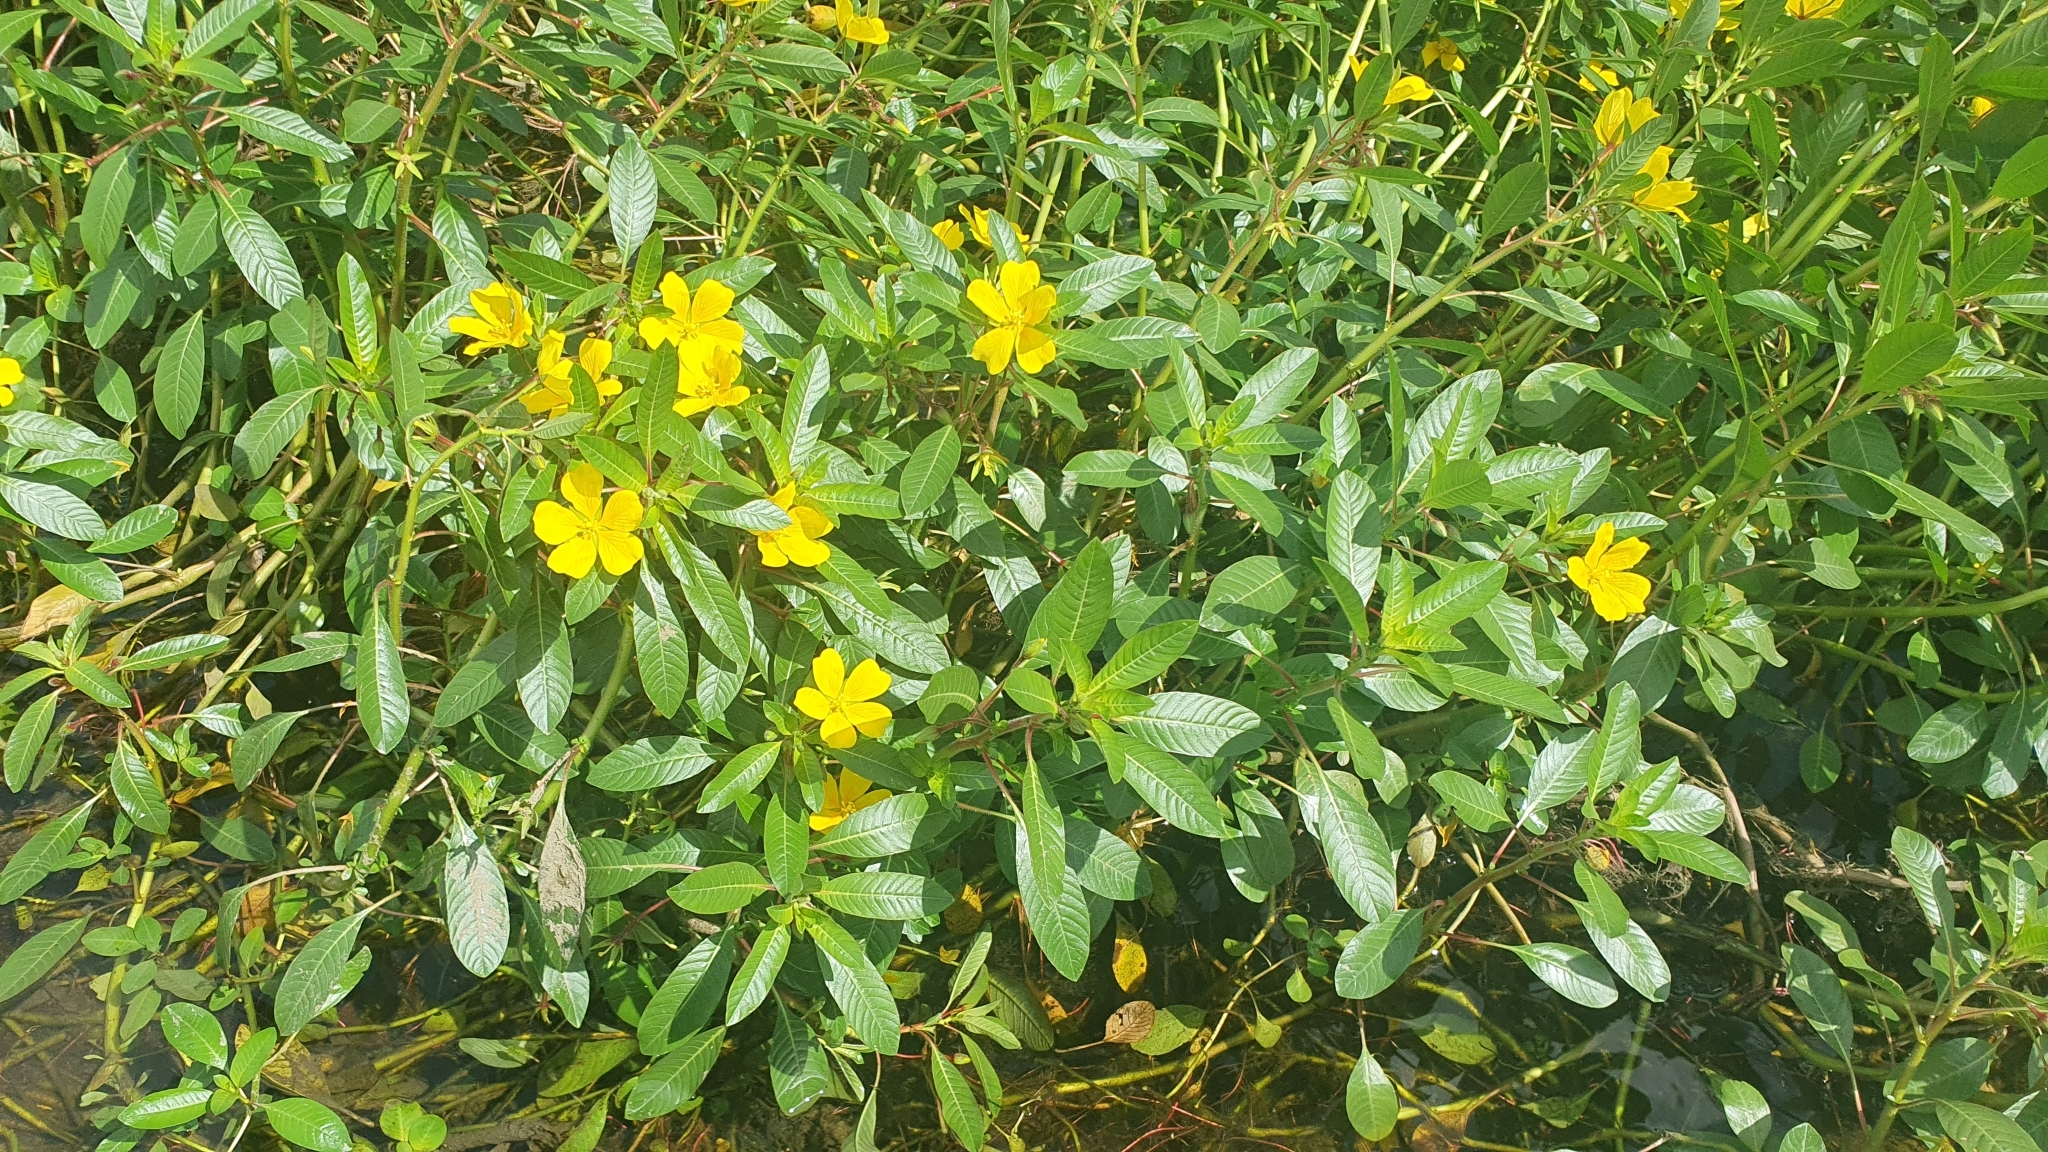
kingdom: Plantae
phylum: Tracheophyta
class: Magnoliopsida
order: Myrtales
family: Onagraceae
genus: Ludwigia
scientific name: Ludwigia peploides
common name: Floating primrose-willow
